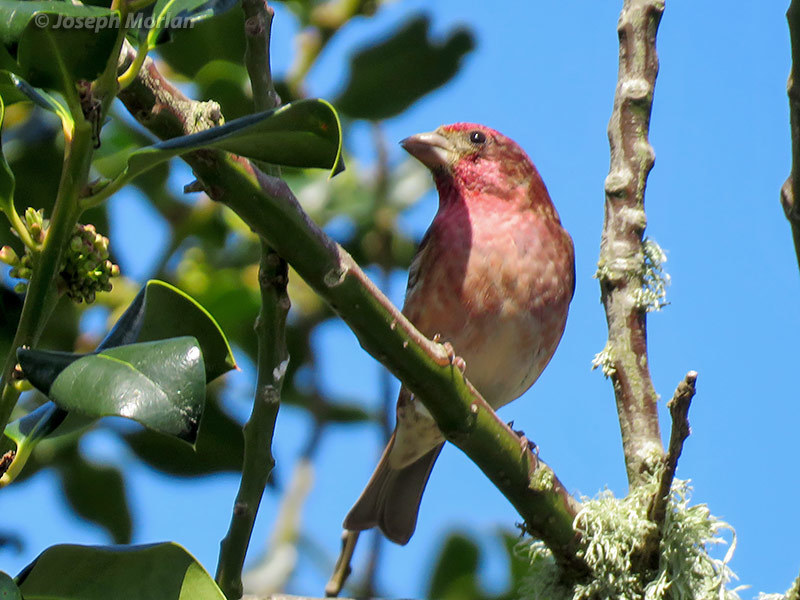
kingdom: Animalia
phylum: Chordata
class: Aves
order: Passeriformes
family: Fringillidae
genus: Haemorhous
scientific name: Haemorhous purpureus
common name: Purple finch
